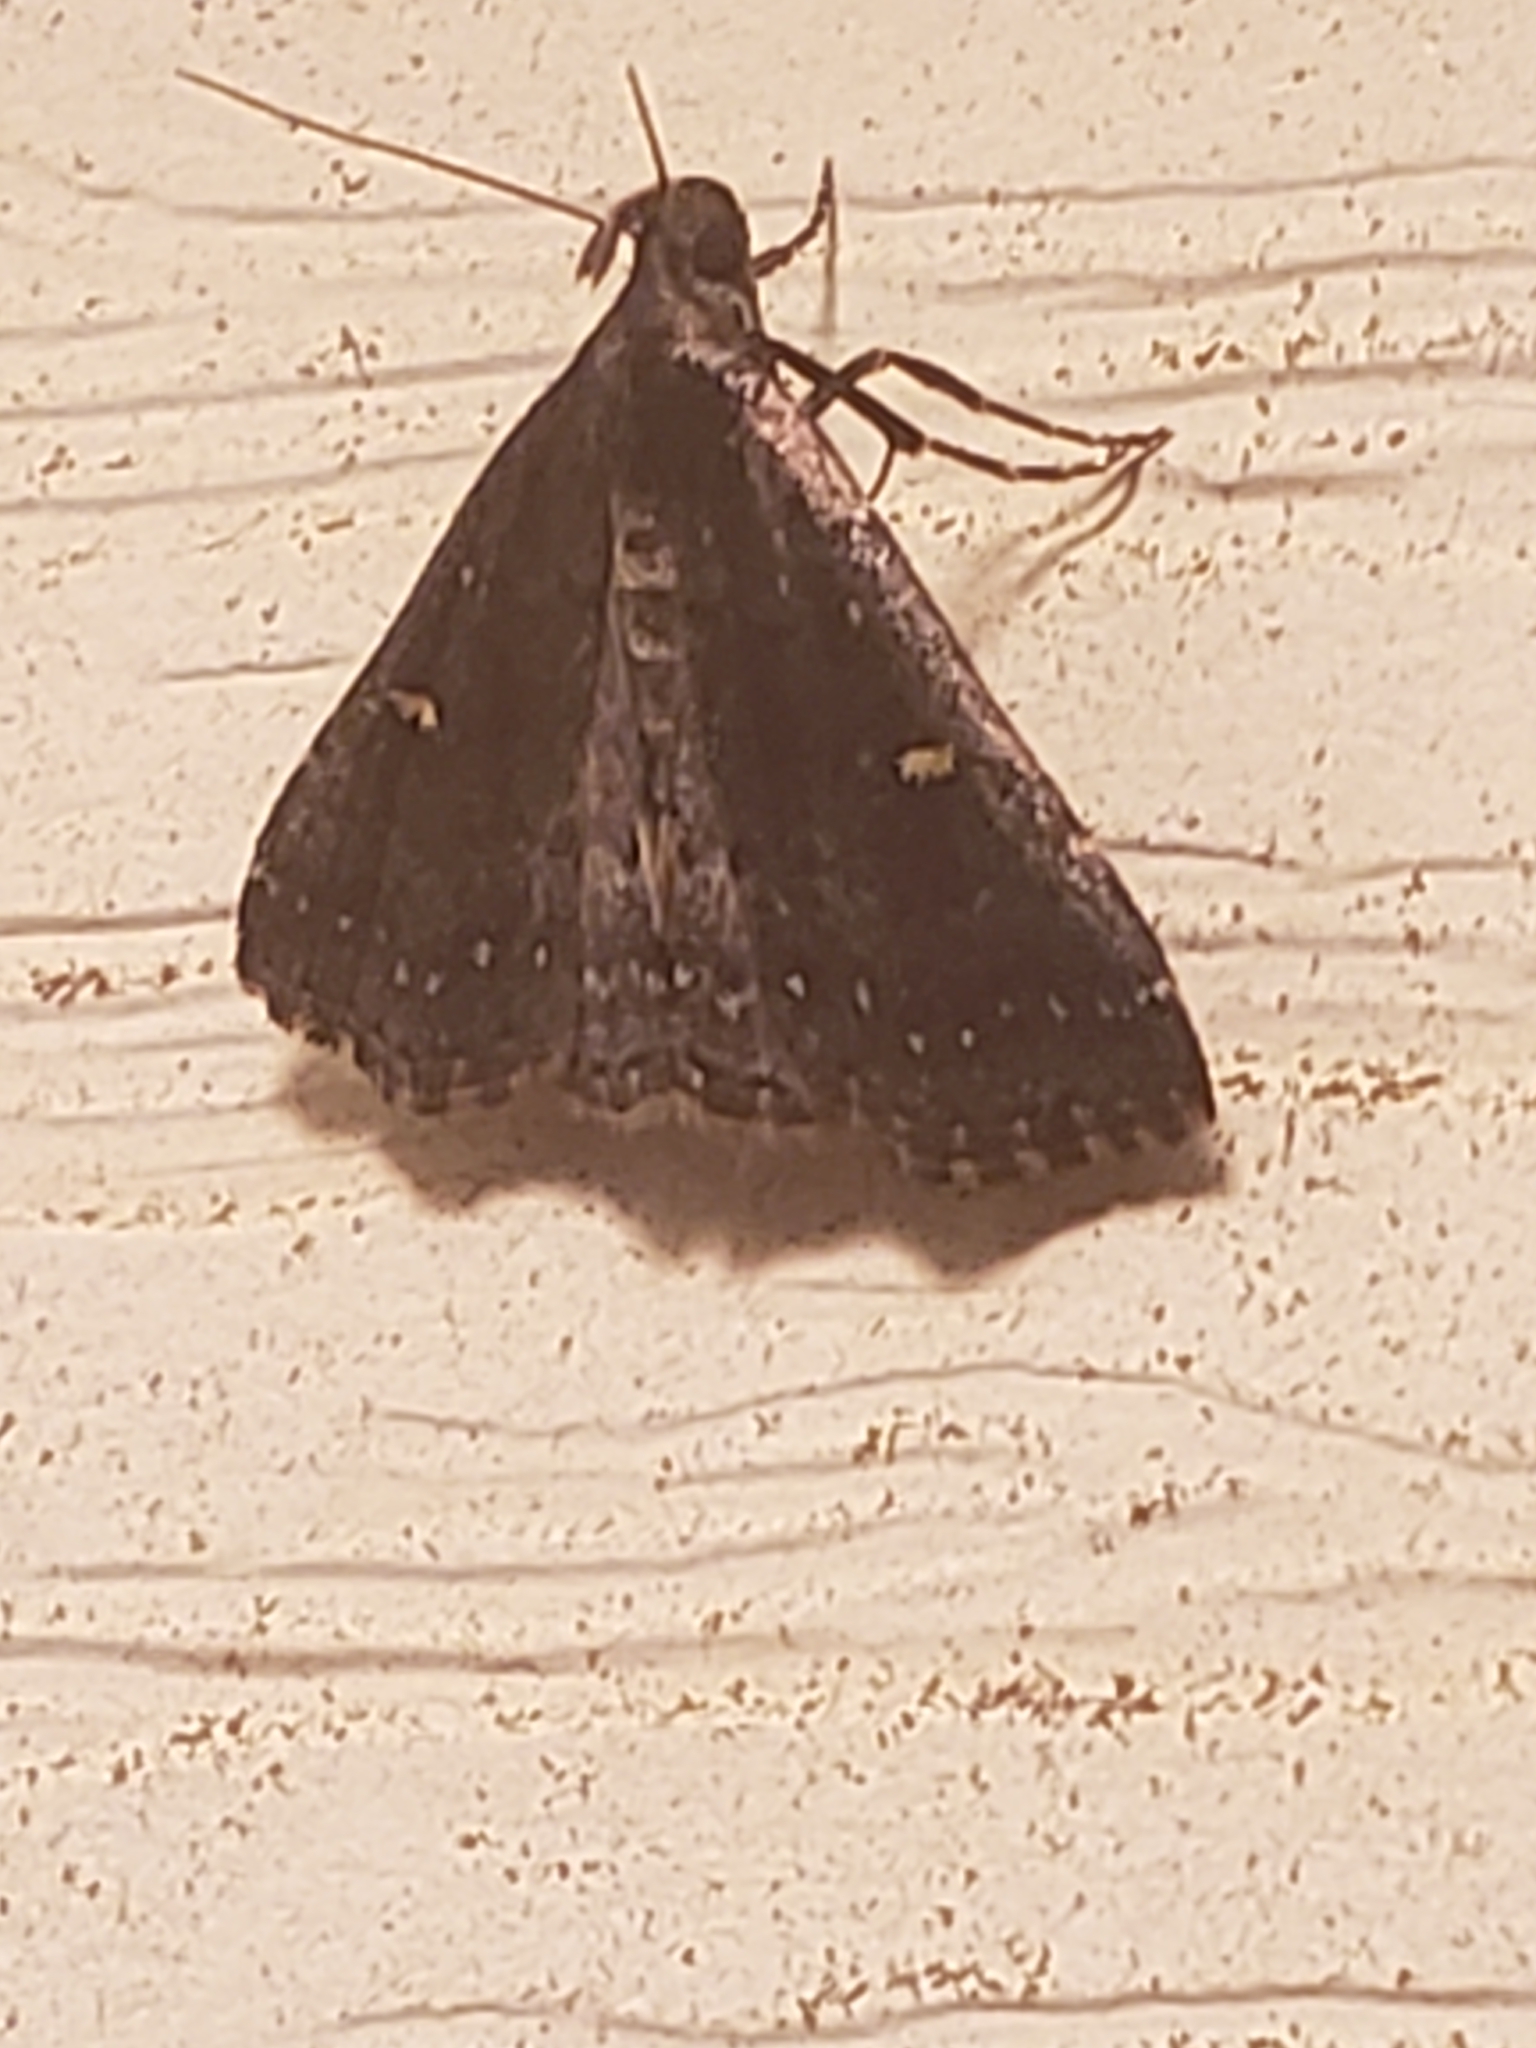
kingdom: Animalia
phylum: Arthropoda
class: Insecta
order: Lepidoptera
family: Erebidae
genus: Tetanolita
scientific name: Tetanolita mynesalis
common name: Smoky tetanolita moth
